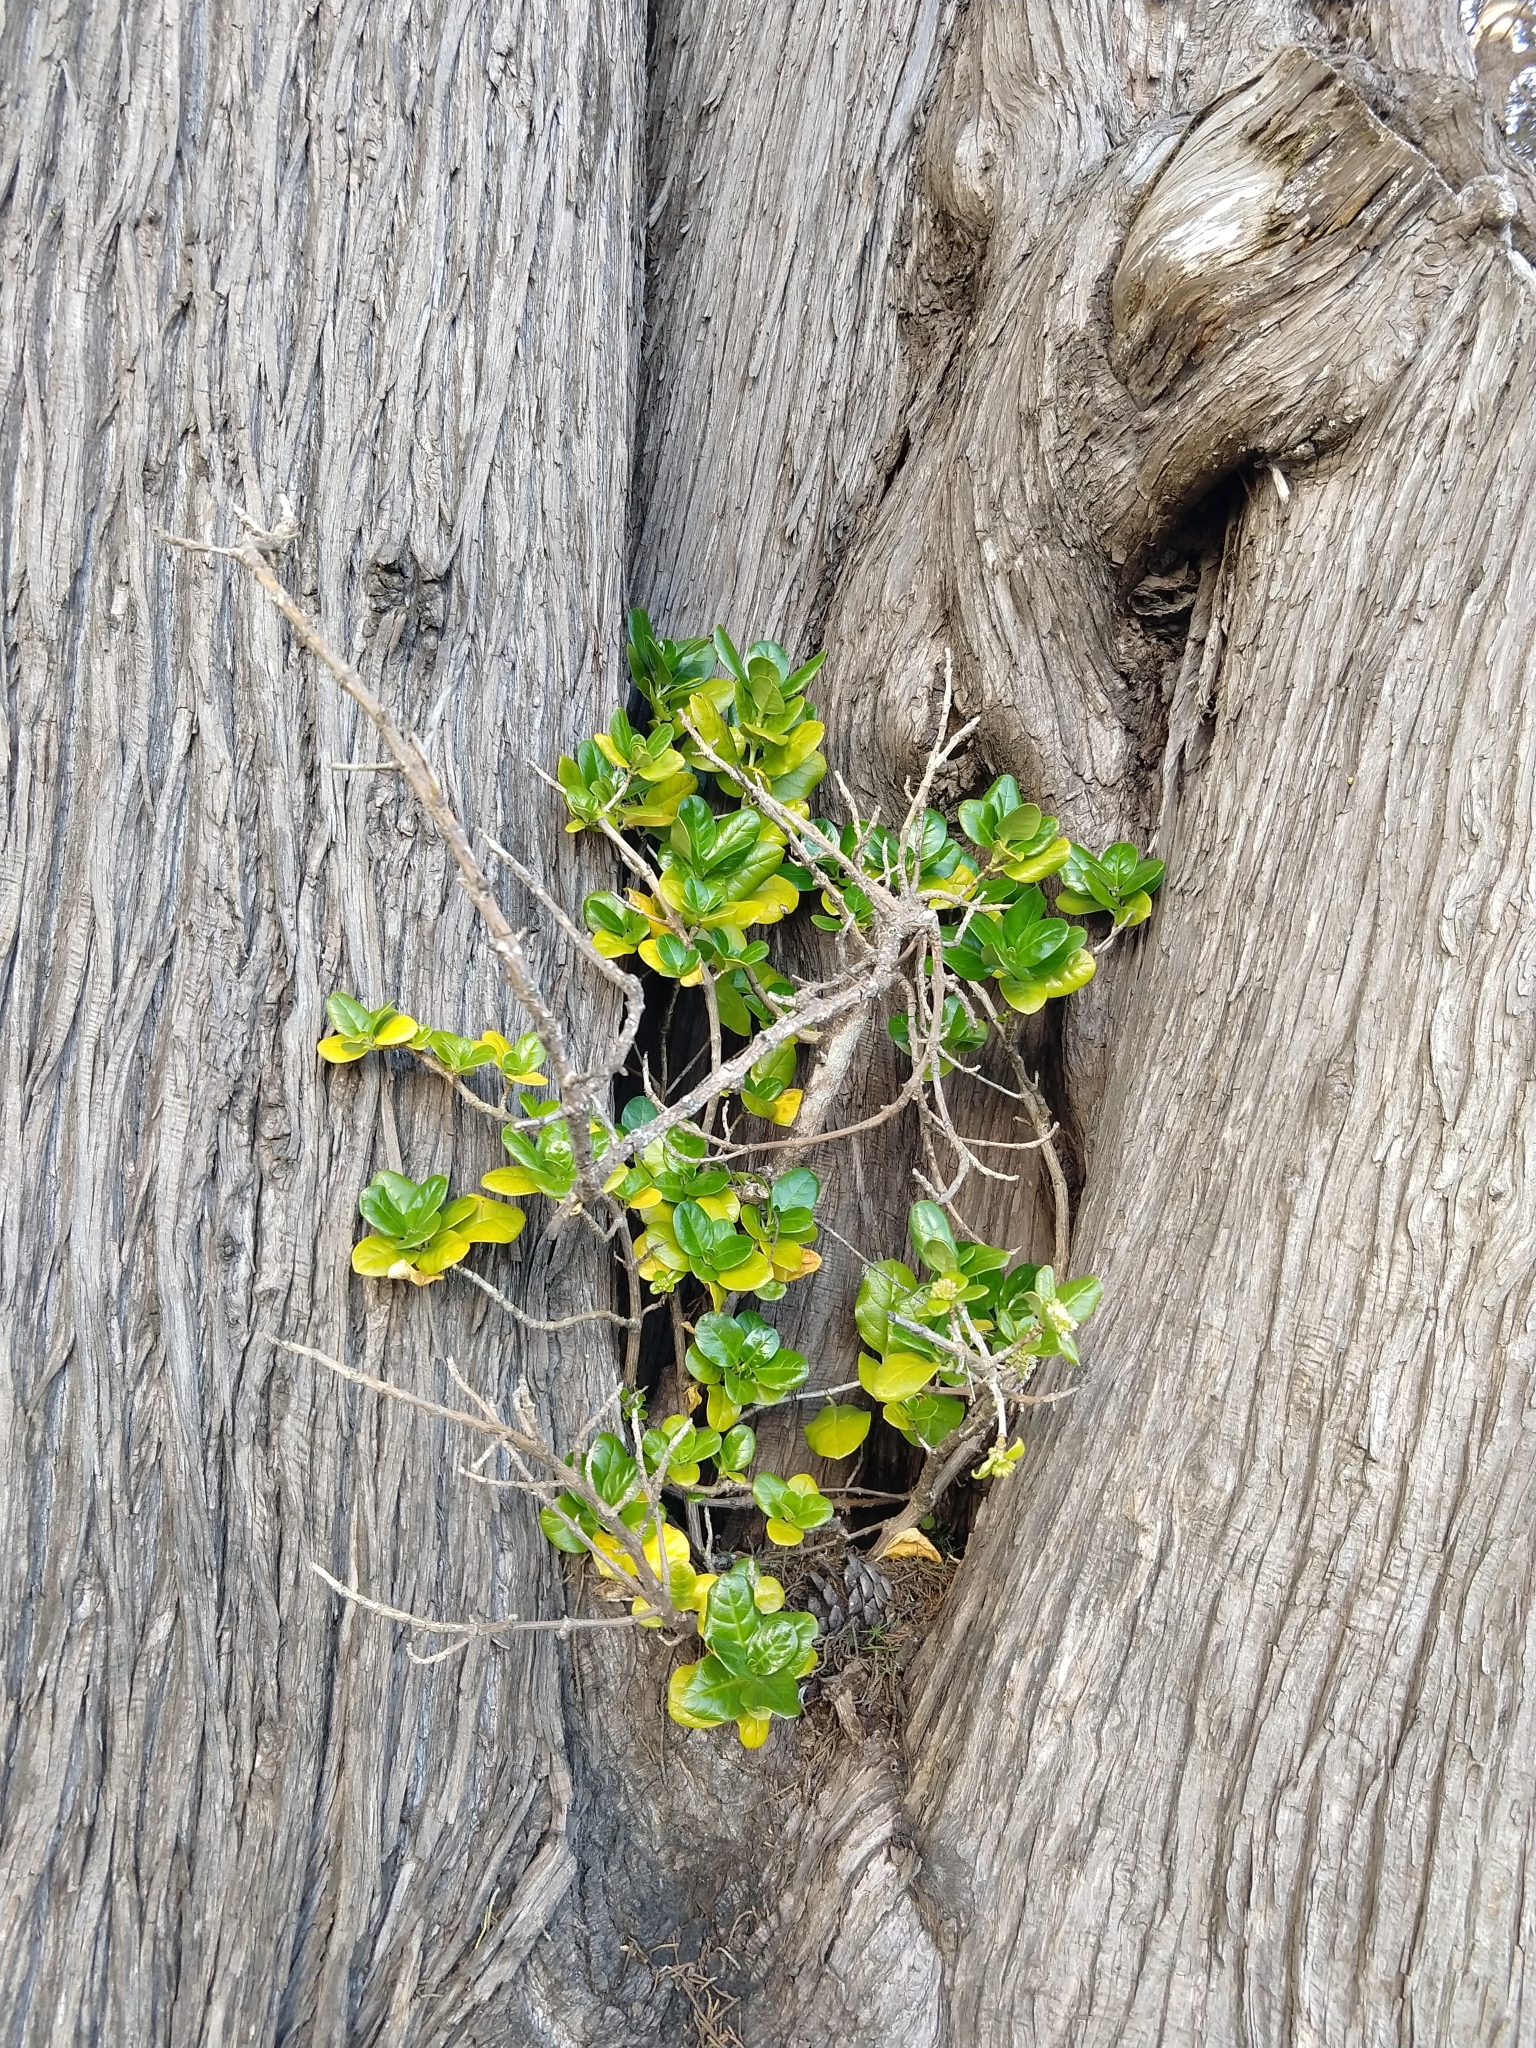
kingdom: Plantae
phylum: Tracheophyta
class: Magnoliopsida
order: Gentianales
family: Rubiaceae
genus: Coprosma
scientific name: Coprosma repens
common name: Tree bedstraw
